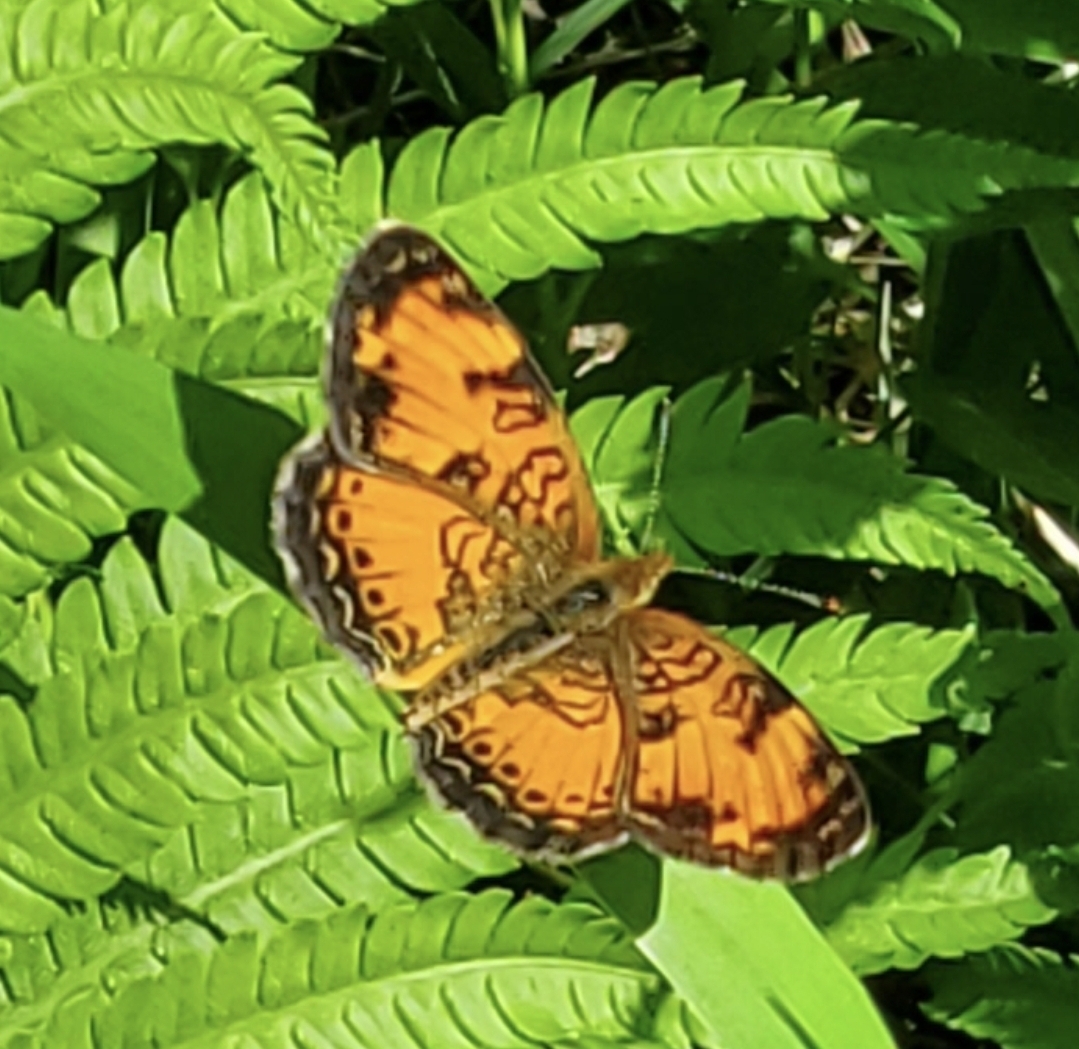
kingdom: Animalia
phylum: Arthropoda
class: Insecta
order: Lepidoptera
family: Nymphalidae
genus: Phyciodes
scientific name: Phyciodes tharos
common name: Pearl crescent
